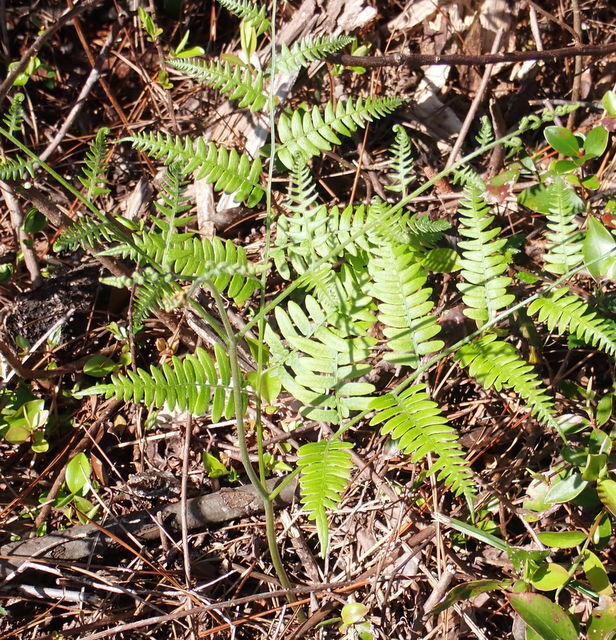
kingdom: Plantae
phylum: Tracheophyta
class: Polypodiopsida
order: Polypodiales
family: Dennstaedtiaceae
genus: Pteridium
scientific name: Pteridium aquilinum
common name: Bracken
